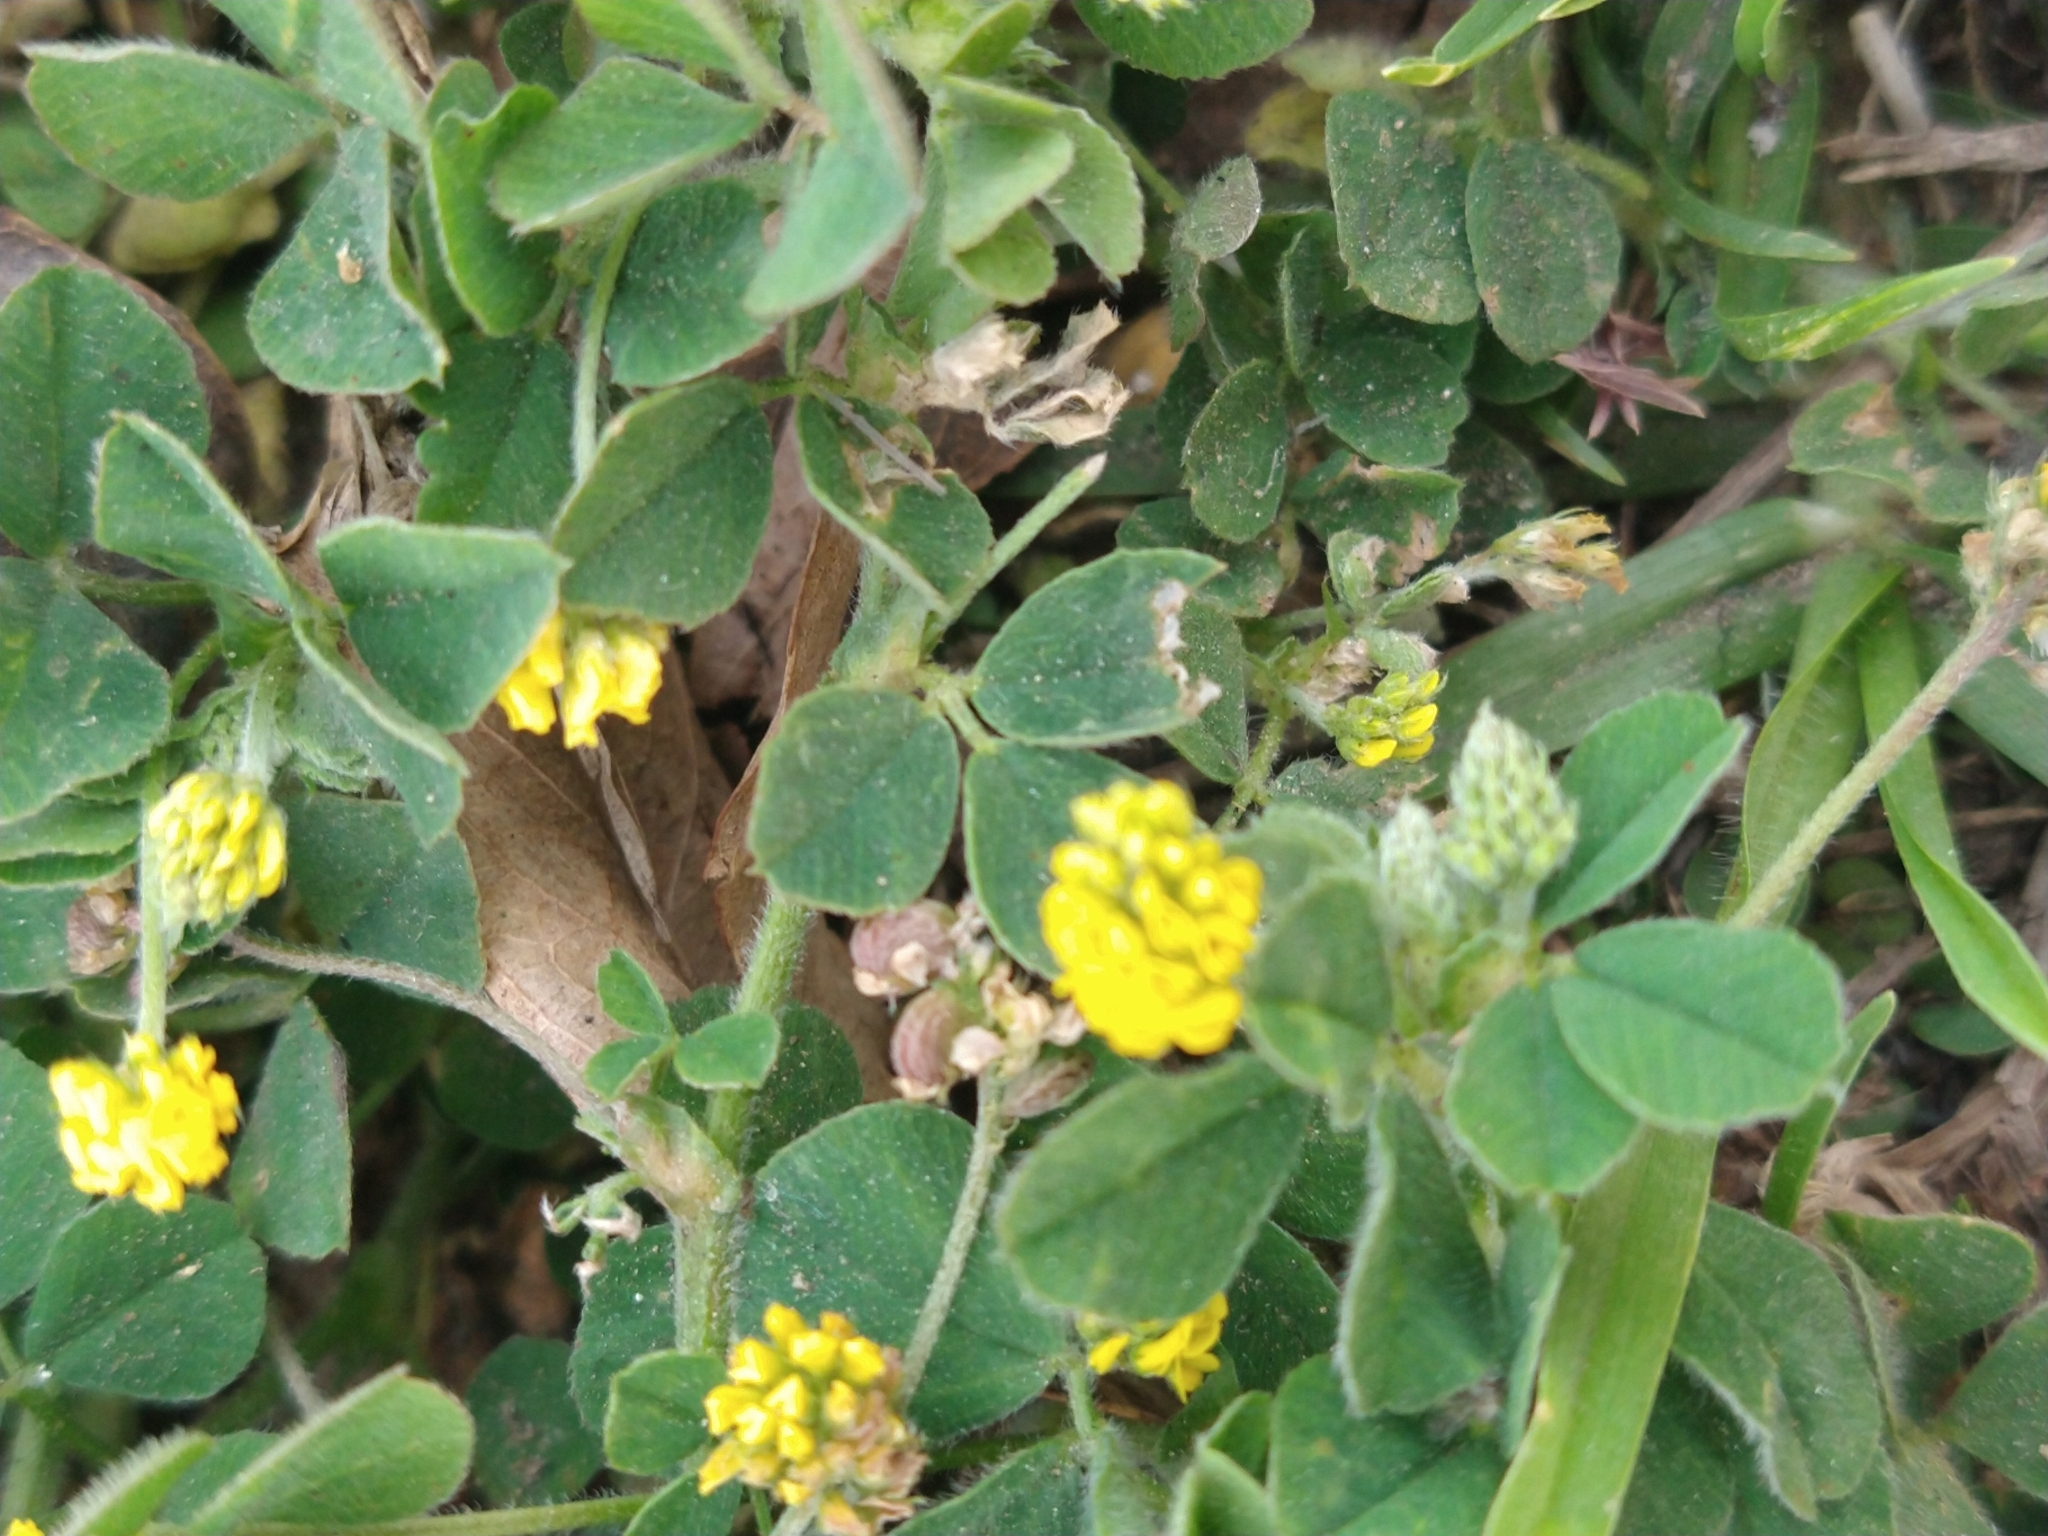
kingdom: Plantae
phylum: Tracheophyta
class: Magnoliopsida
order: Fabales
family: Fabaceae
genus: Medicago
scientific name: Medicago lupulina
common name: Black medick
